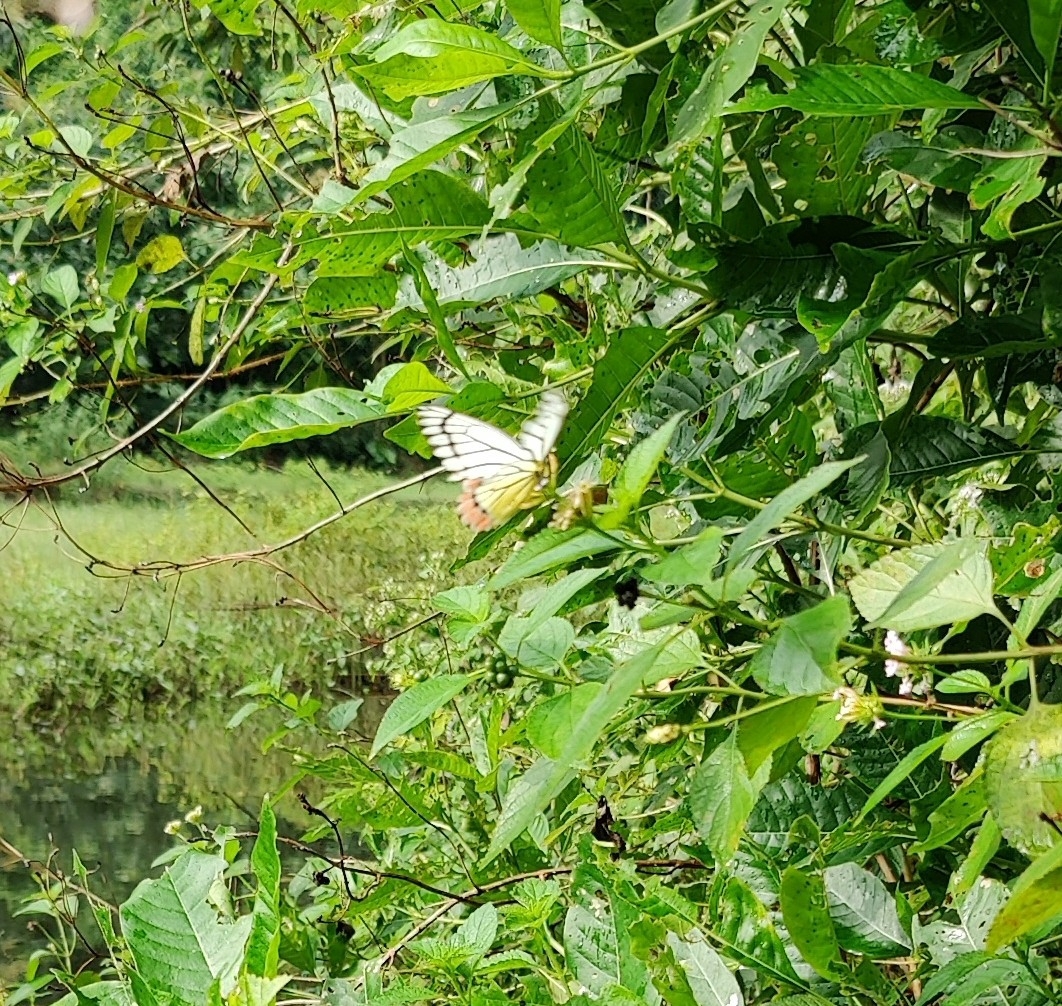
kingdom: Animalia
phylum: Arthropoda
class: Insecta
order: Lepidoptera
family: Pieridae
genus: Delias
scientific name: Delias eucharis
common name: Common jezebel
